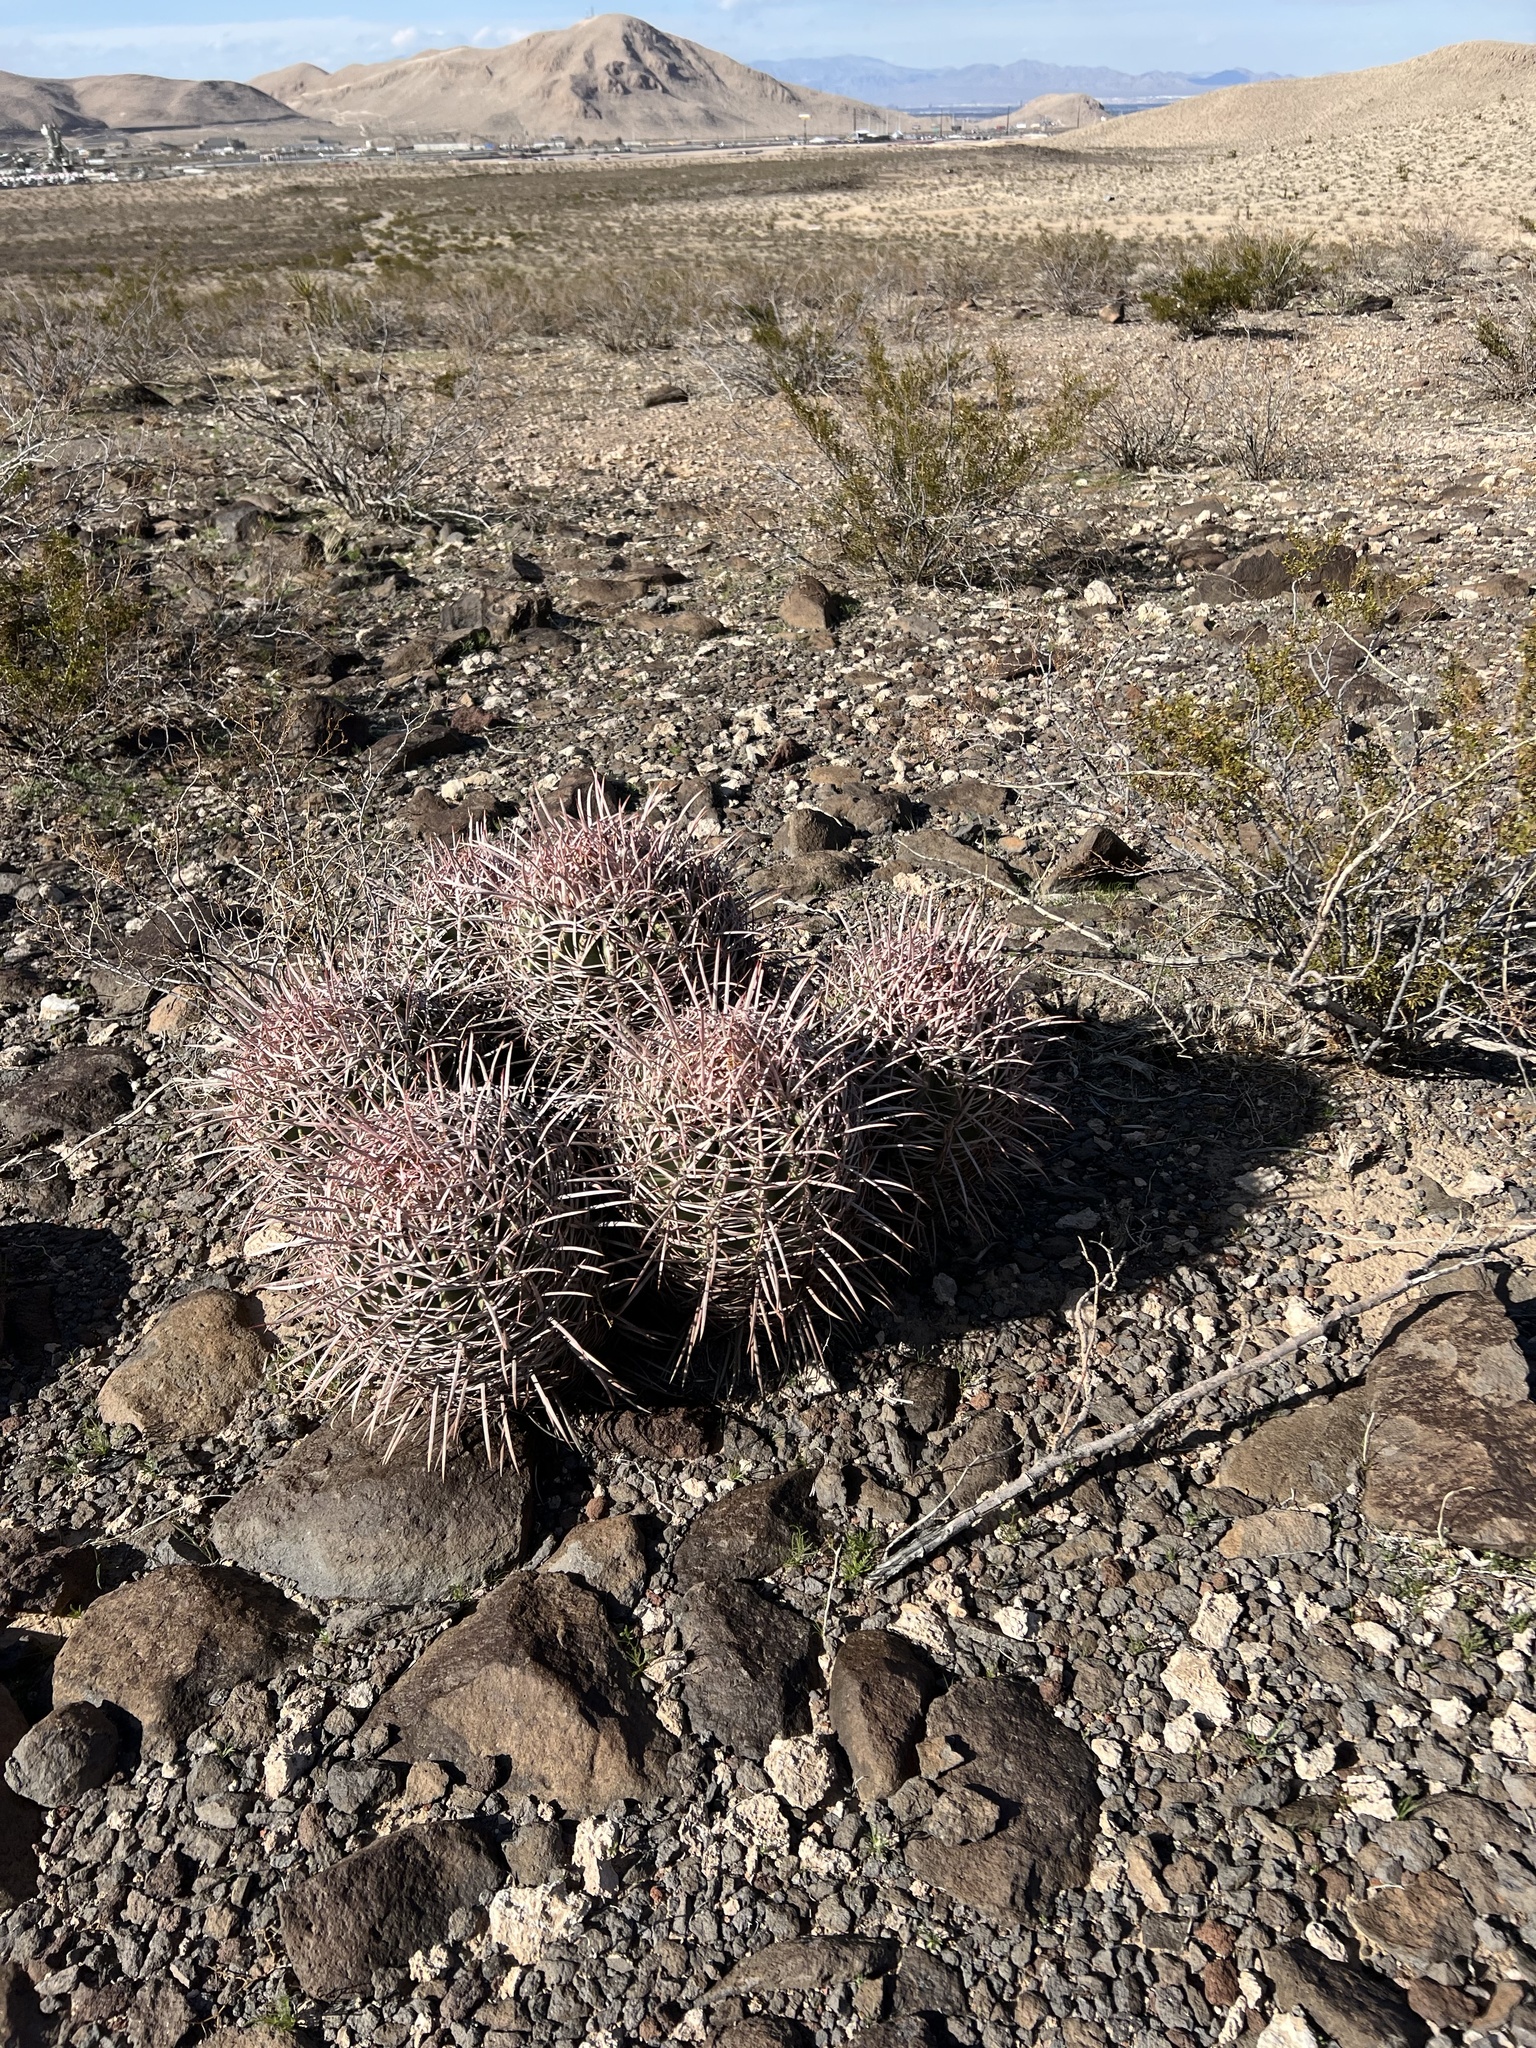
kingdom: Plantae
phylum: Tracheophyta
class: Magnoliopsida
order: Caryophyllales
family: Cactaceae
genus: Echinocactus
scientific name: Echinocactus polycephalus
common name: Cottontop cactus
